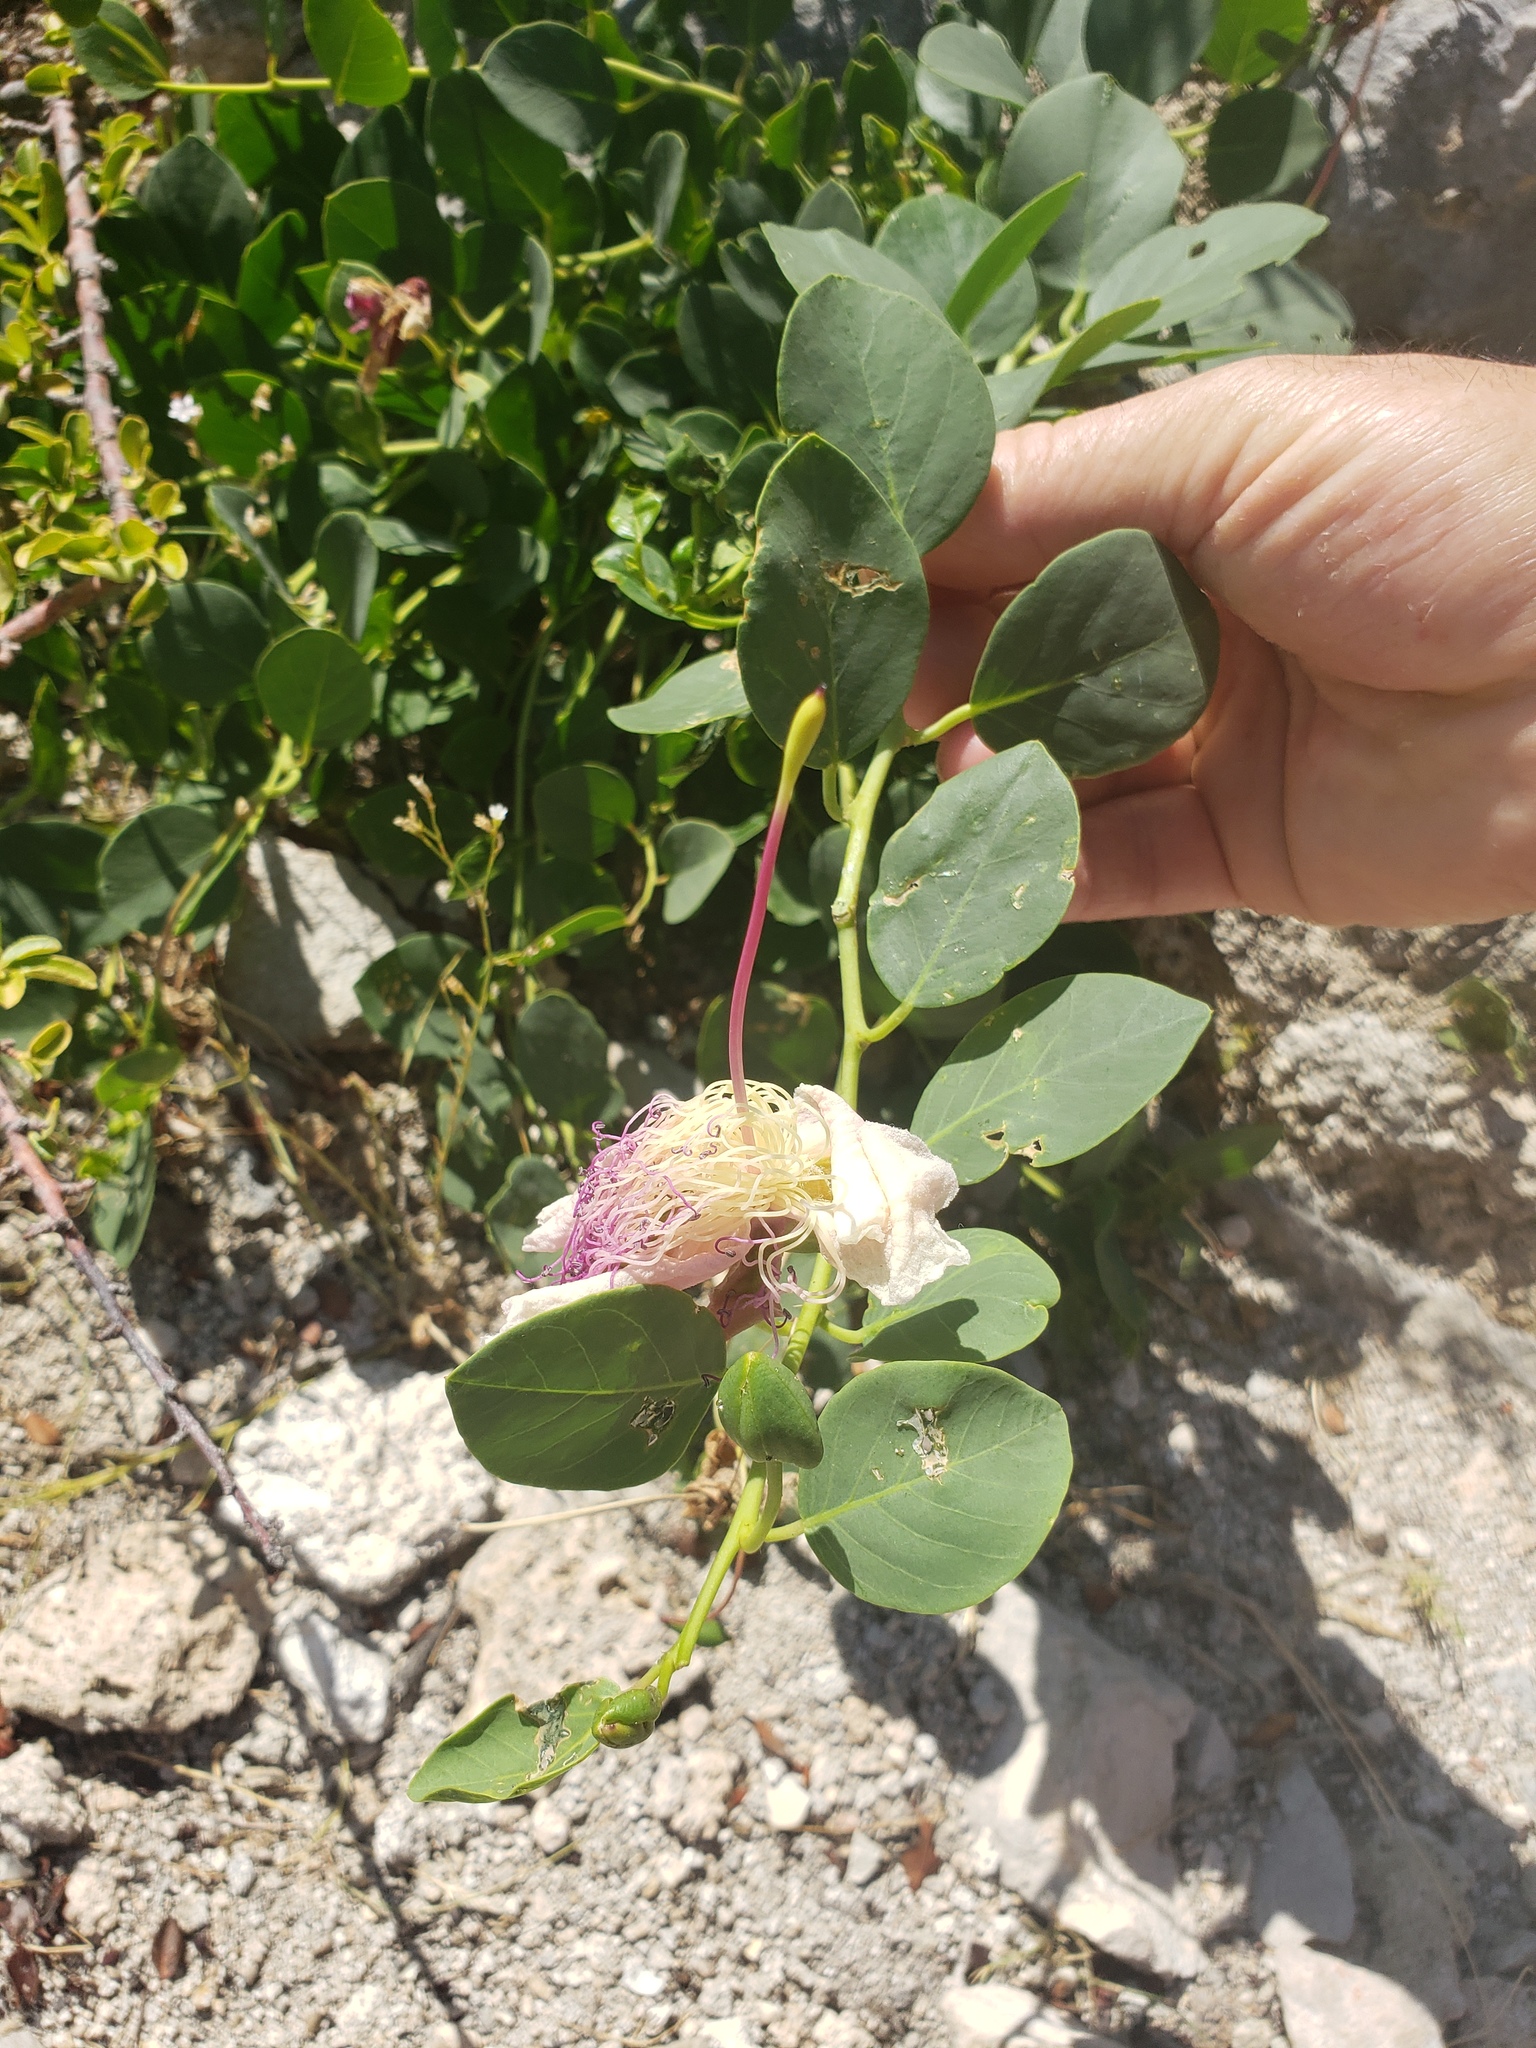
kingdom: Plantae
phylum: Tracheophyta
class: Magnoliopsida
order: Brassicales
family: Capparaceae
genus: Capparis
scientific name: Capparis orientalis
